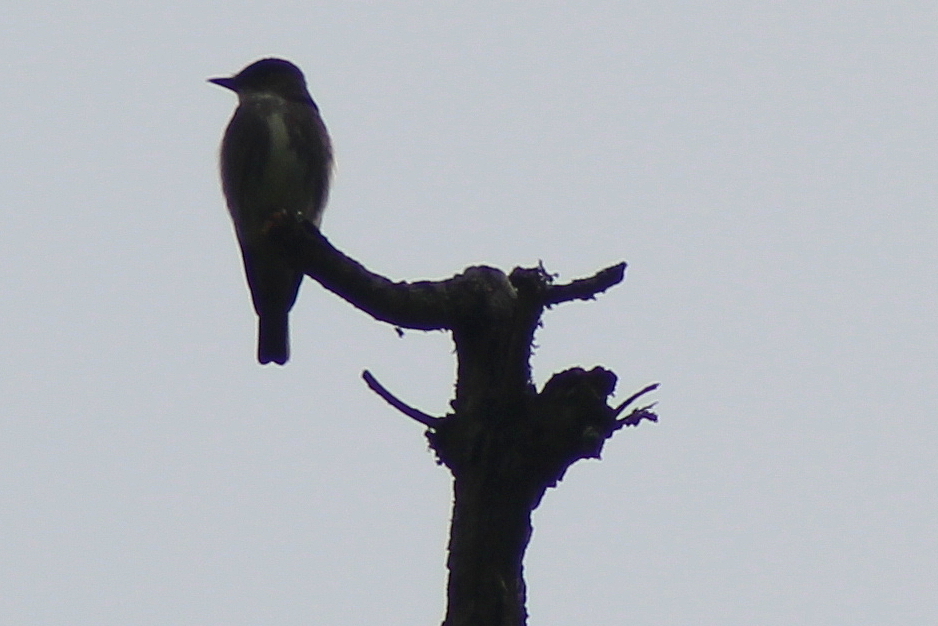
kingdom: Animalia
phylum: Chordata
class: Aves
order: Passeriformes
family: Tyrannidae
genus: Contopus
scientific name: Contopus cooperi
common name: Olive-sided flycatcher
